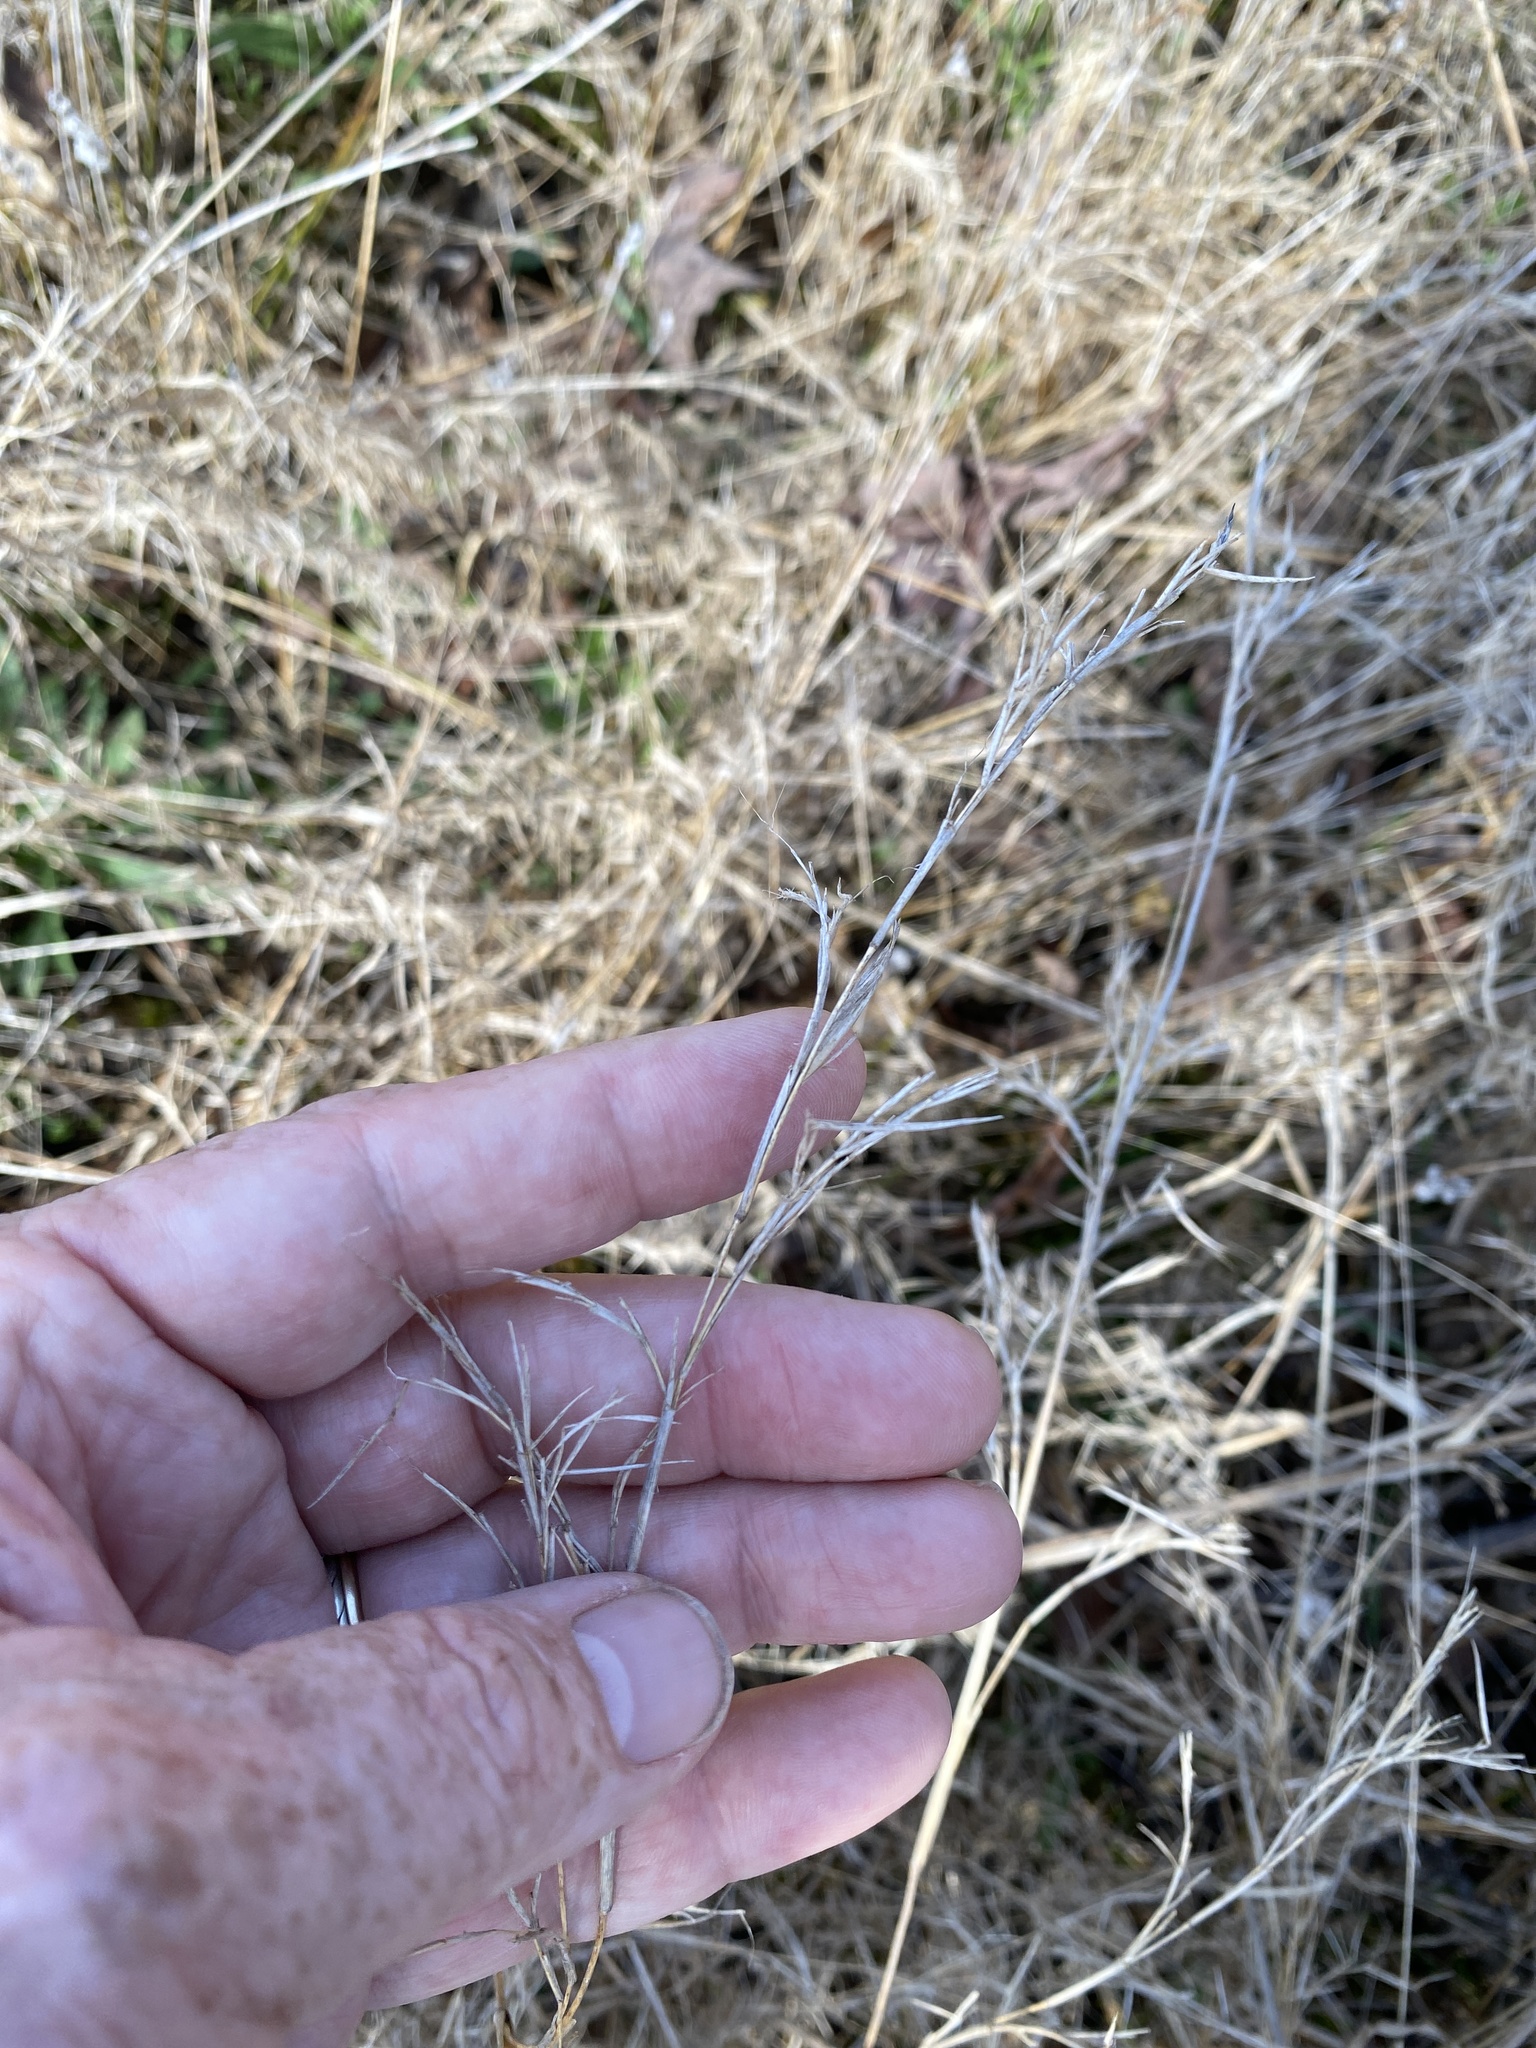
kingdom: Plantae
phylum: Tracheophyta
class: Liliopsida
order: Poales
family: Poaceae
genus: Dichanthelium
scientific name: Dichanthelium microcarpon
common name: Small-fruited witchgrass
